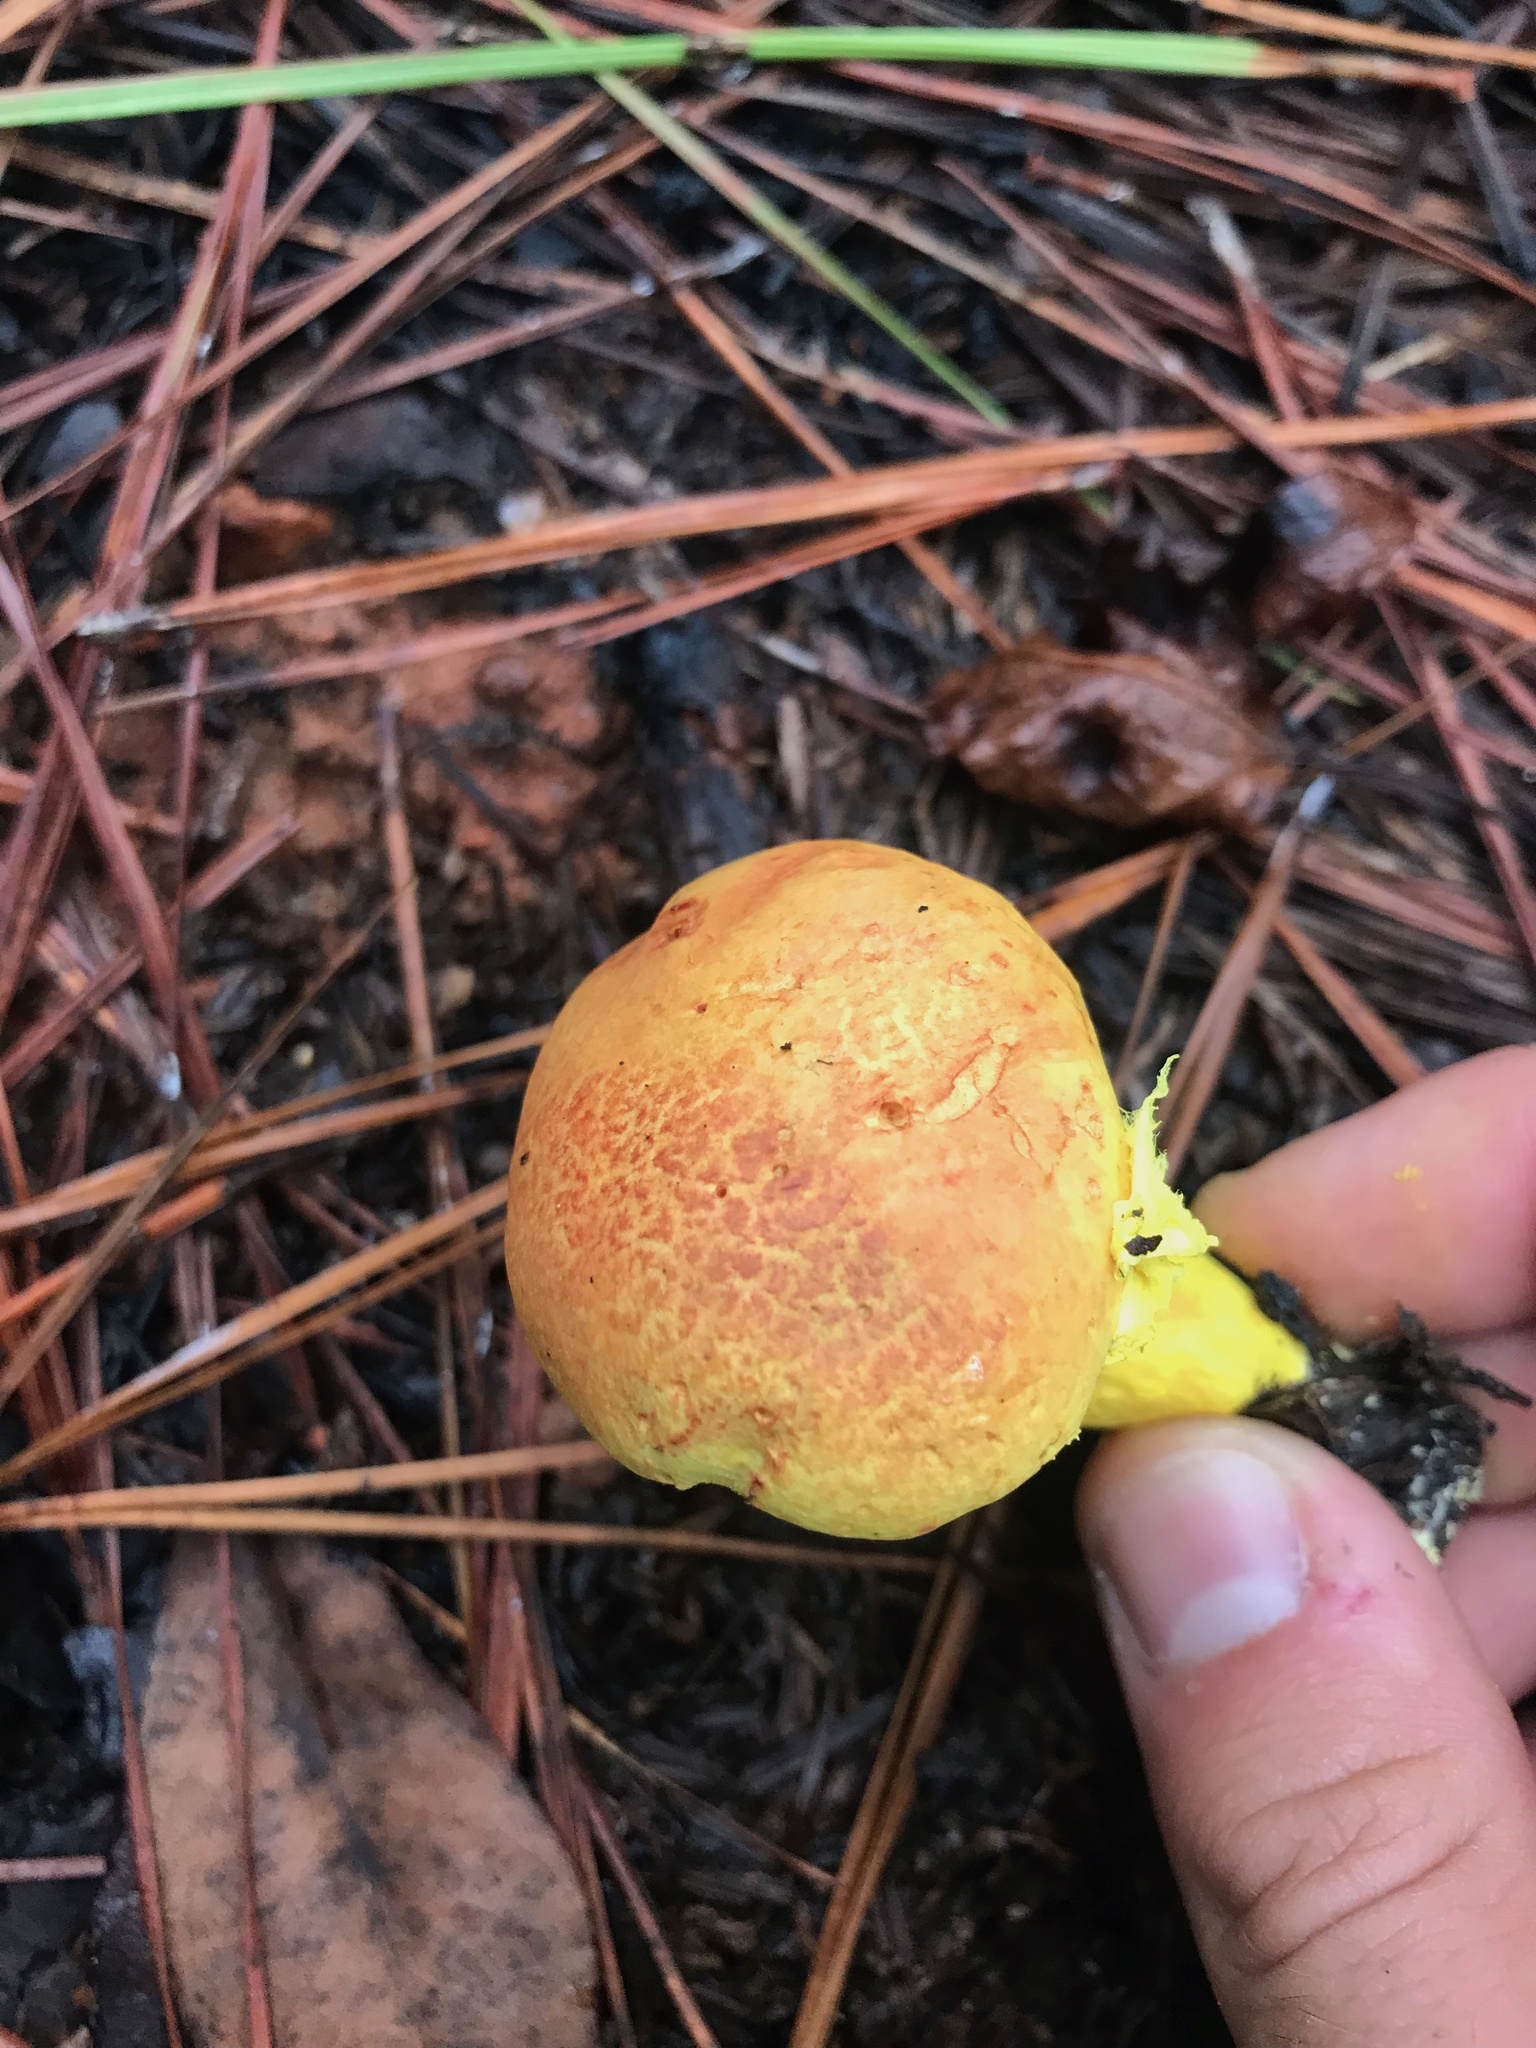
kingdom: Fungi
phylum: Basidiomycota
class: Agaricomycetes
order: Boletales
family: Boletaceae
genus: Pulveroboletus
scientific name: Pulveroboletus ravenelii
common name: Powdery sulfur bolete
